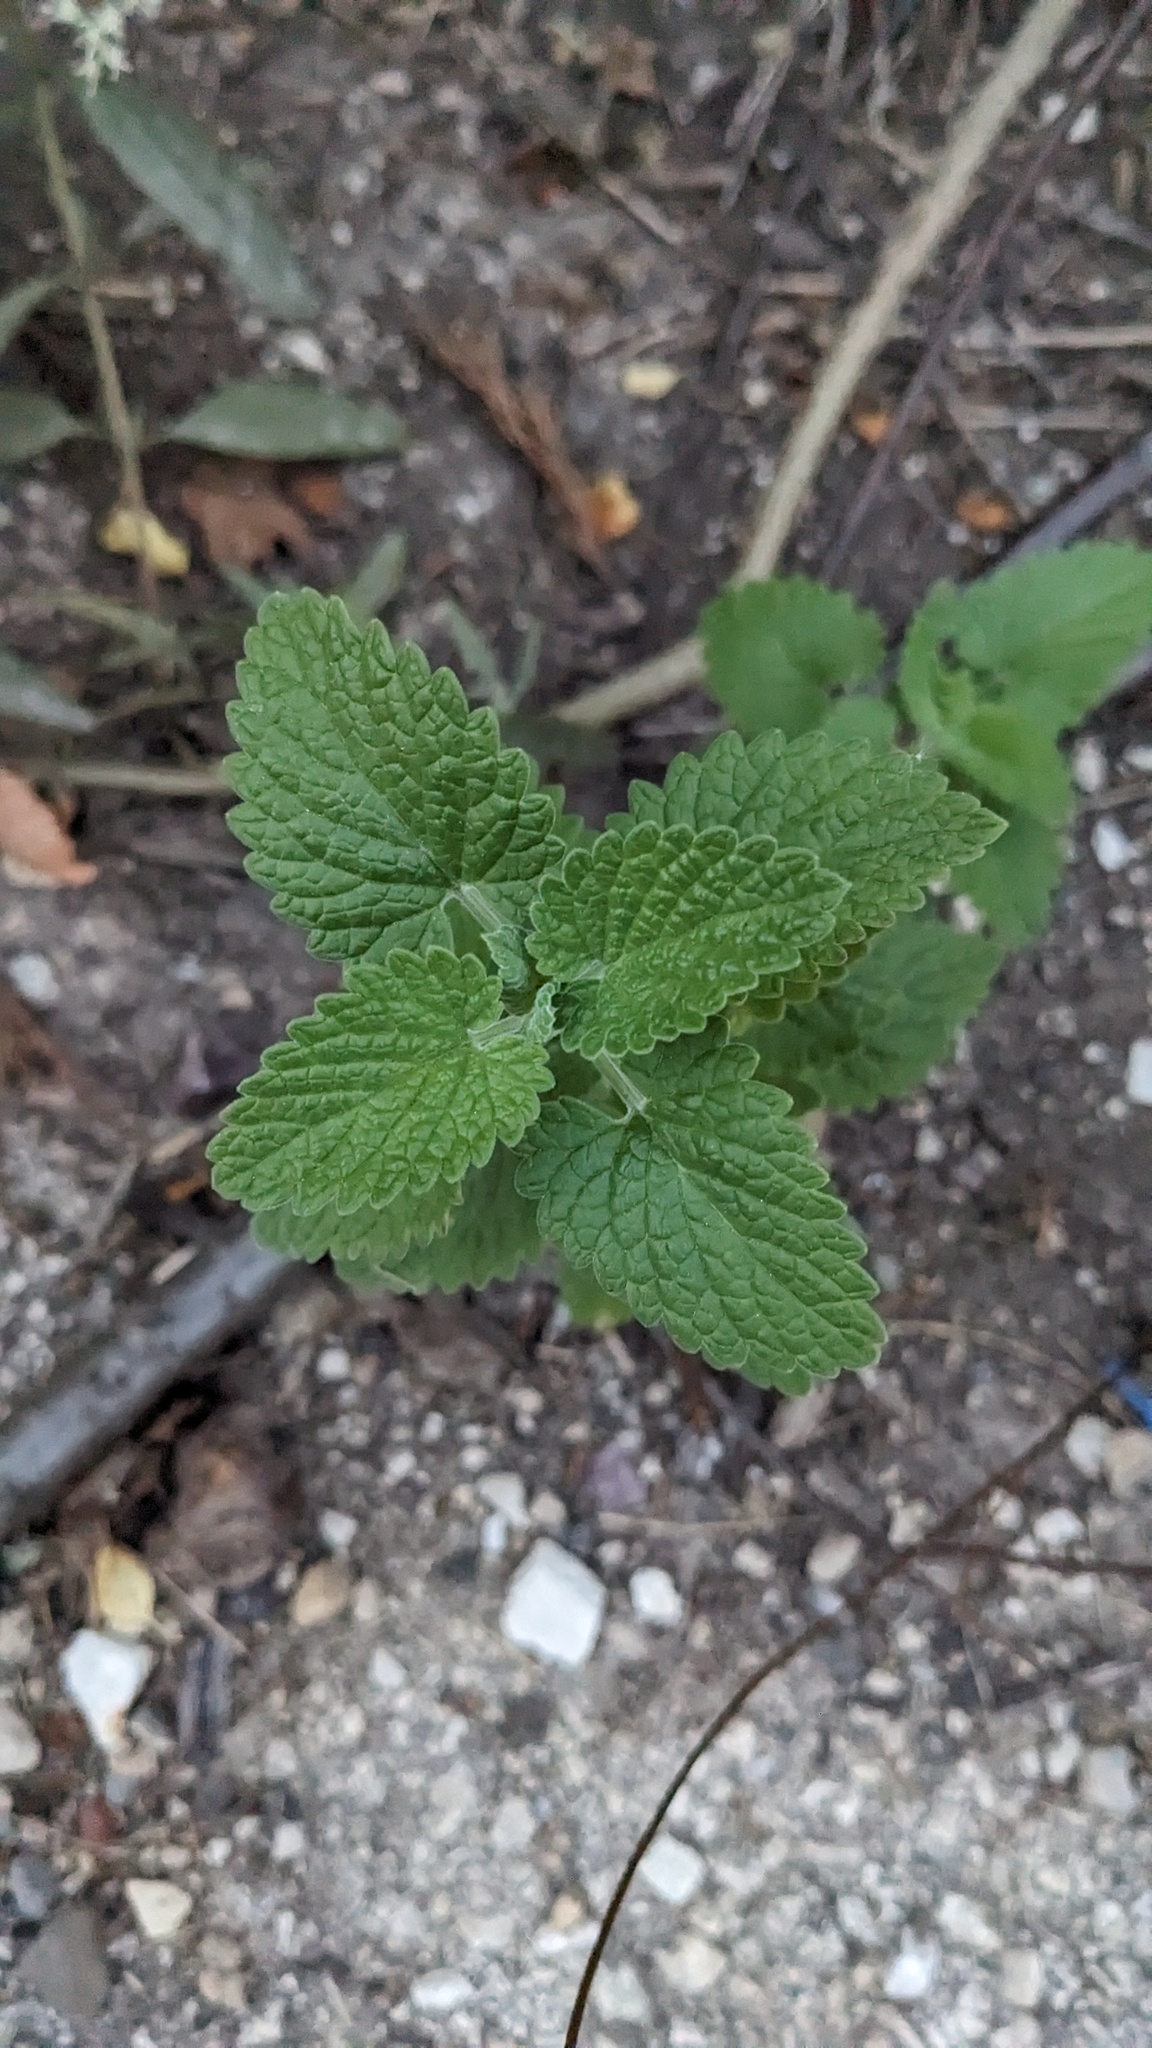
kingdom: Plantae
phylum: Tracheophyta
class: Magnoliopsida
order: Lamiales
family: Lamiaceae
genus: Nepeta
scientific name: Nepeta cataria
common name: Catnip
